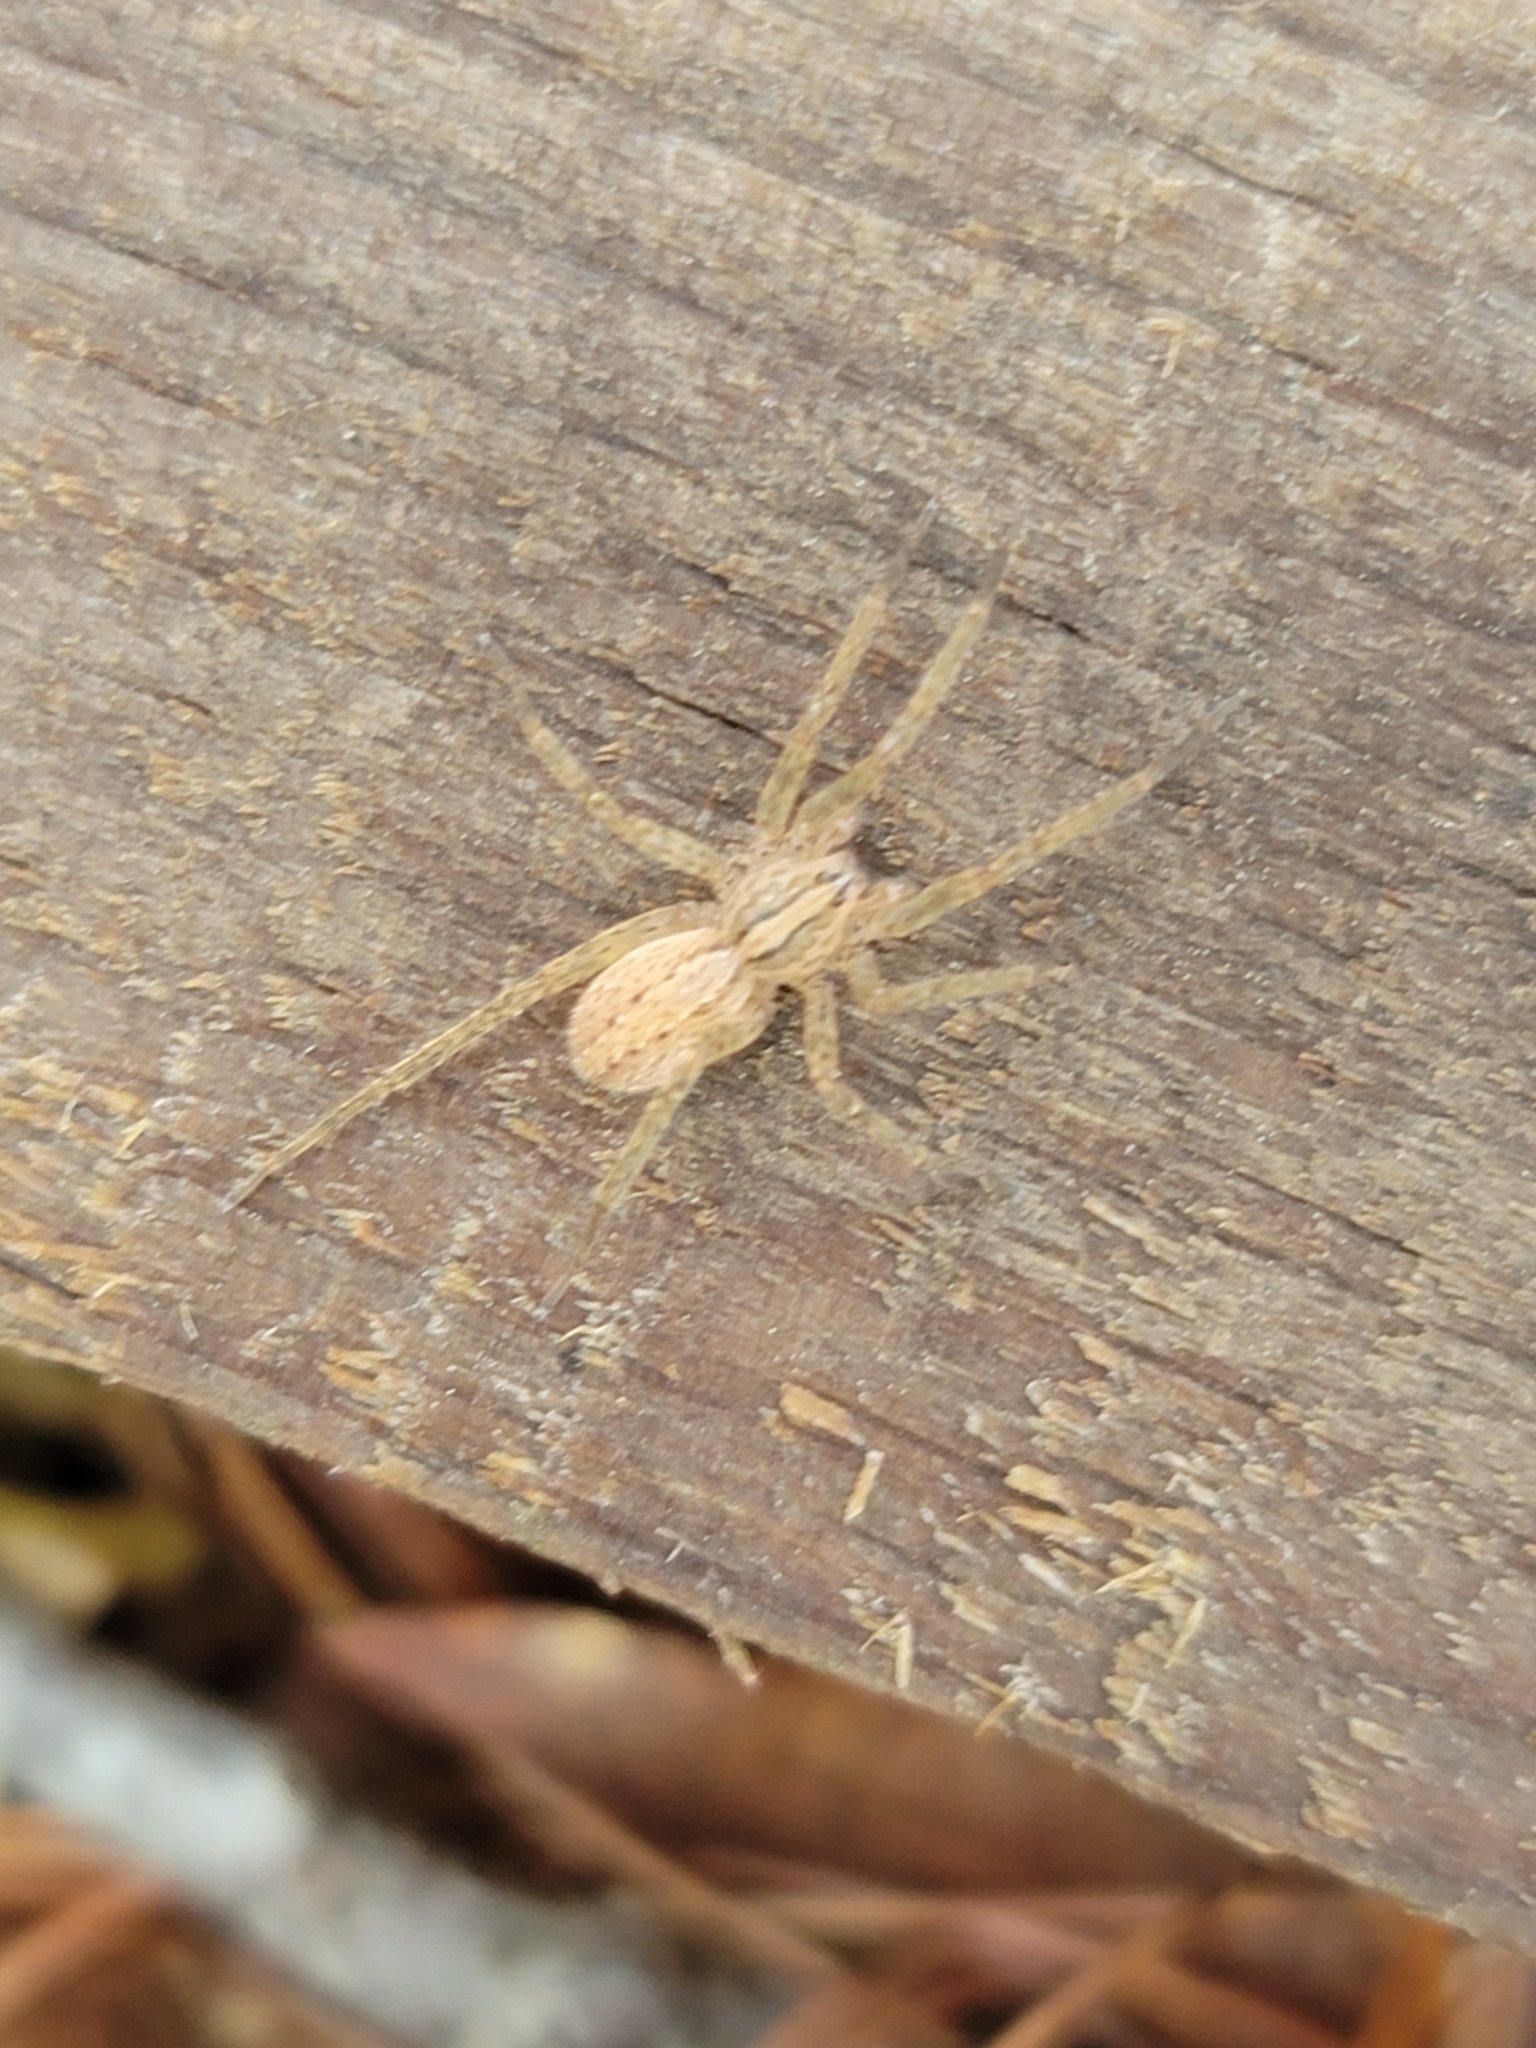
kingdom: Animalia
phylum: Arthropoda
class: Arachnida
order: Araneae
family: Ctenidae
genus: Anahita
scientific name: Anahita punctulata
